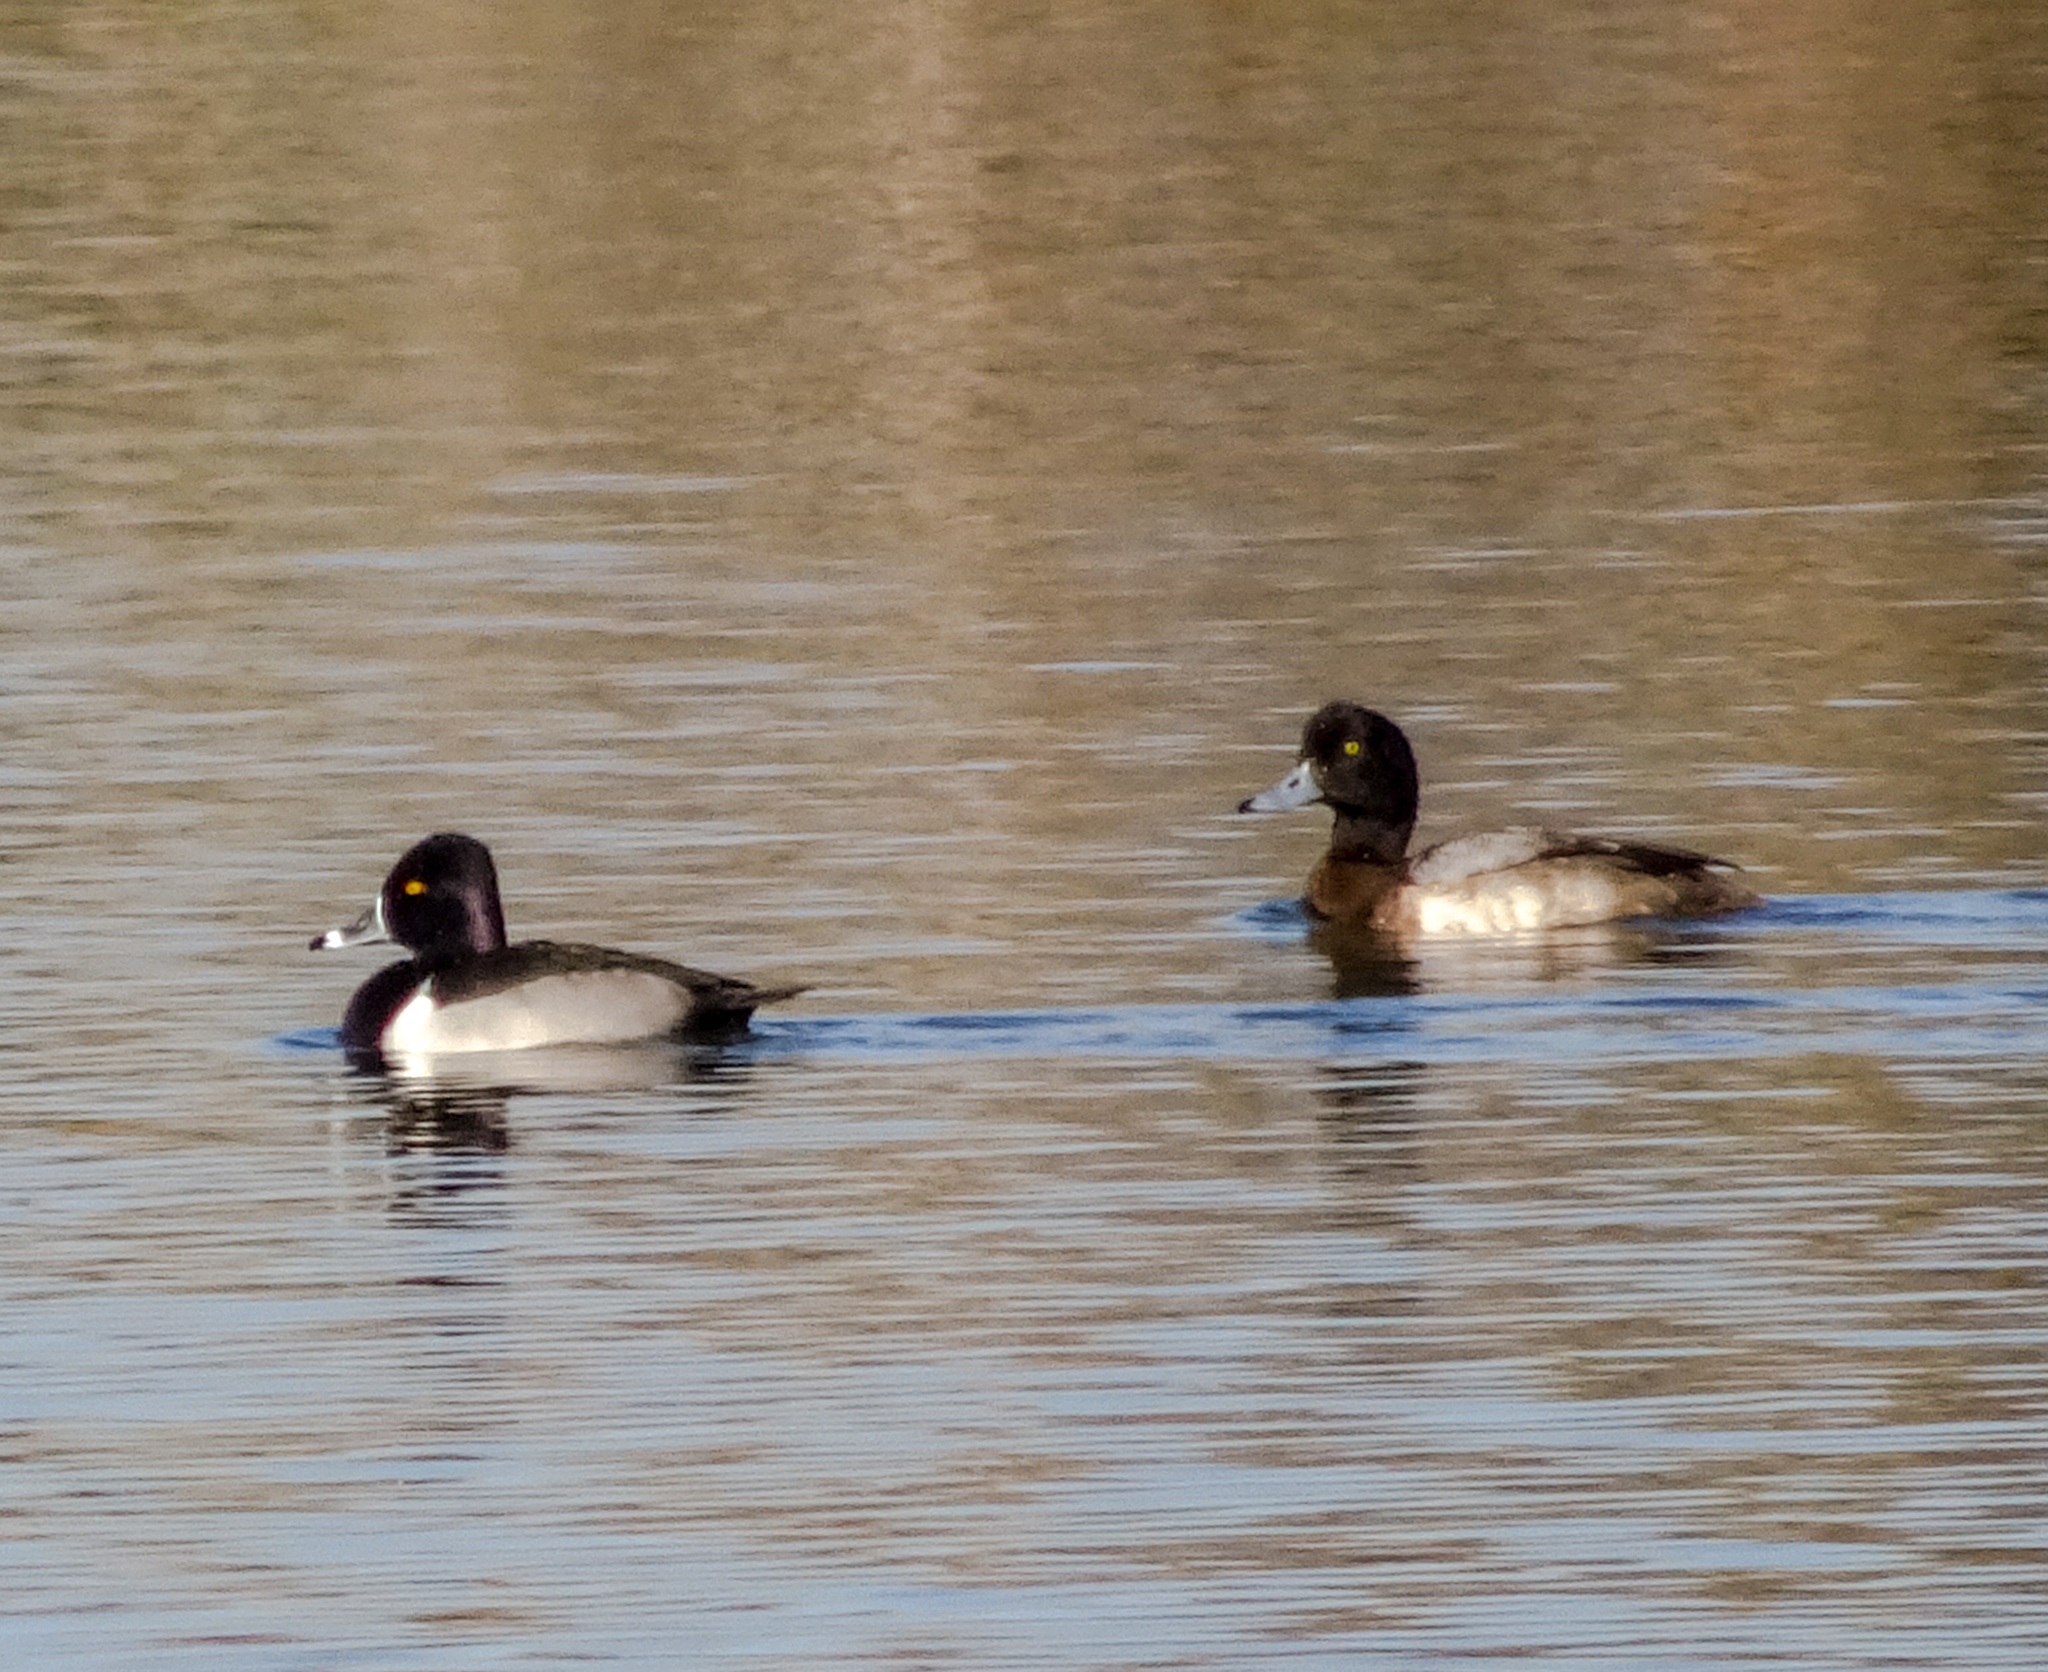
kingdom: Animalia
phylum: Chordata
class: Aves
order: Anseriformes
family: Anatidae
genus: Aythya
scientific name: Aythya collaris
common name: Ring-necked duck
